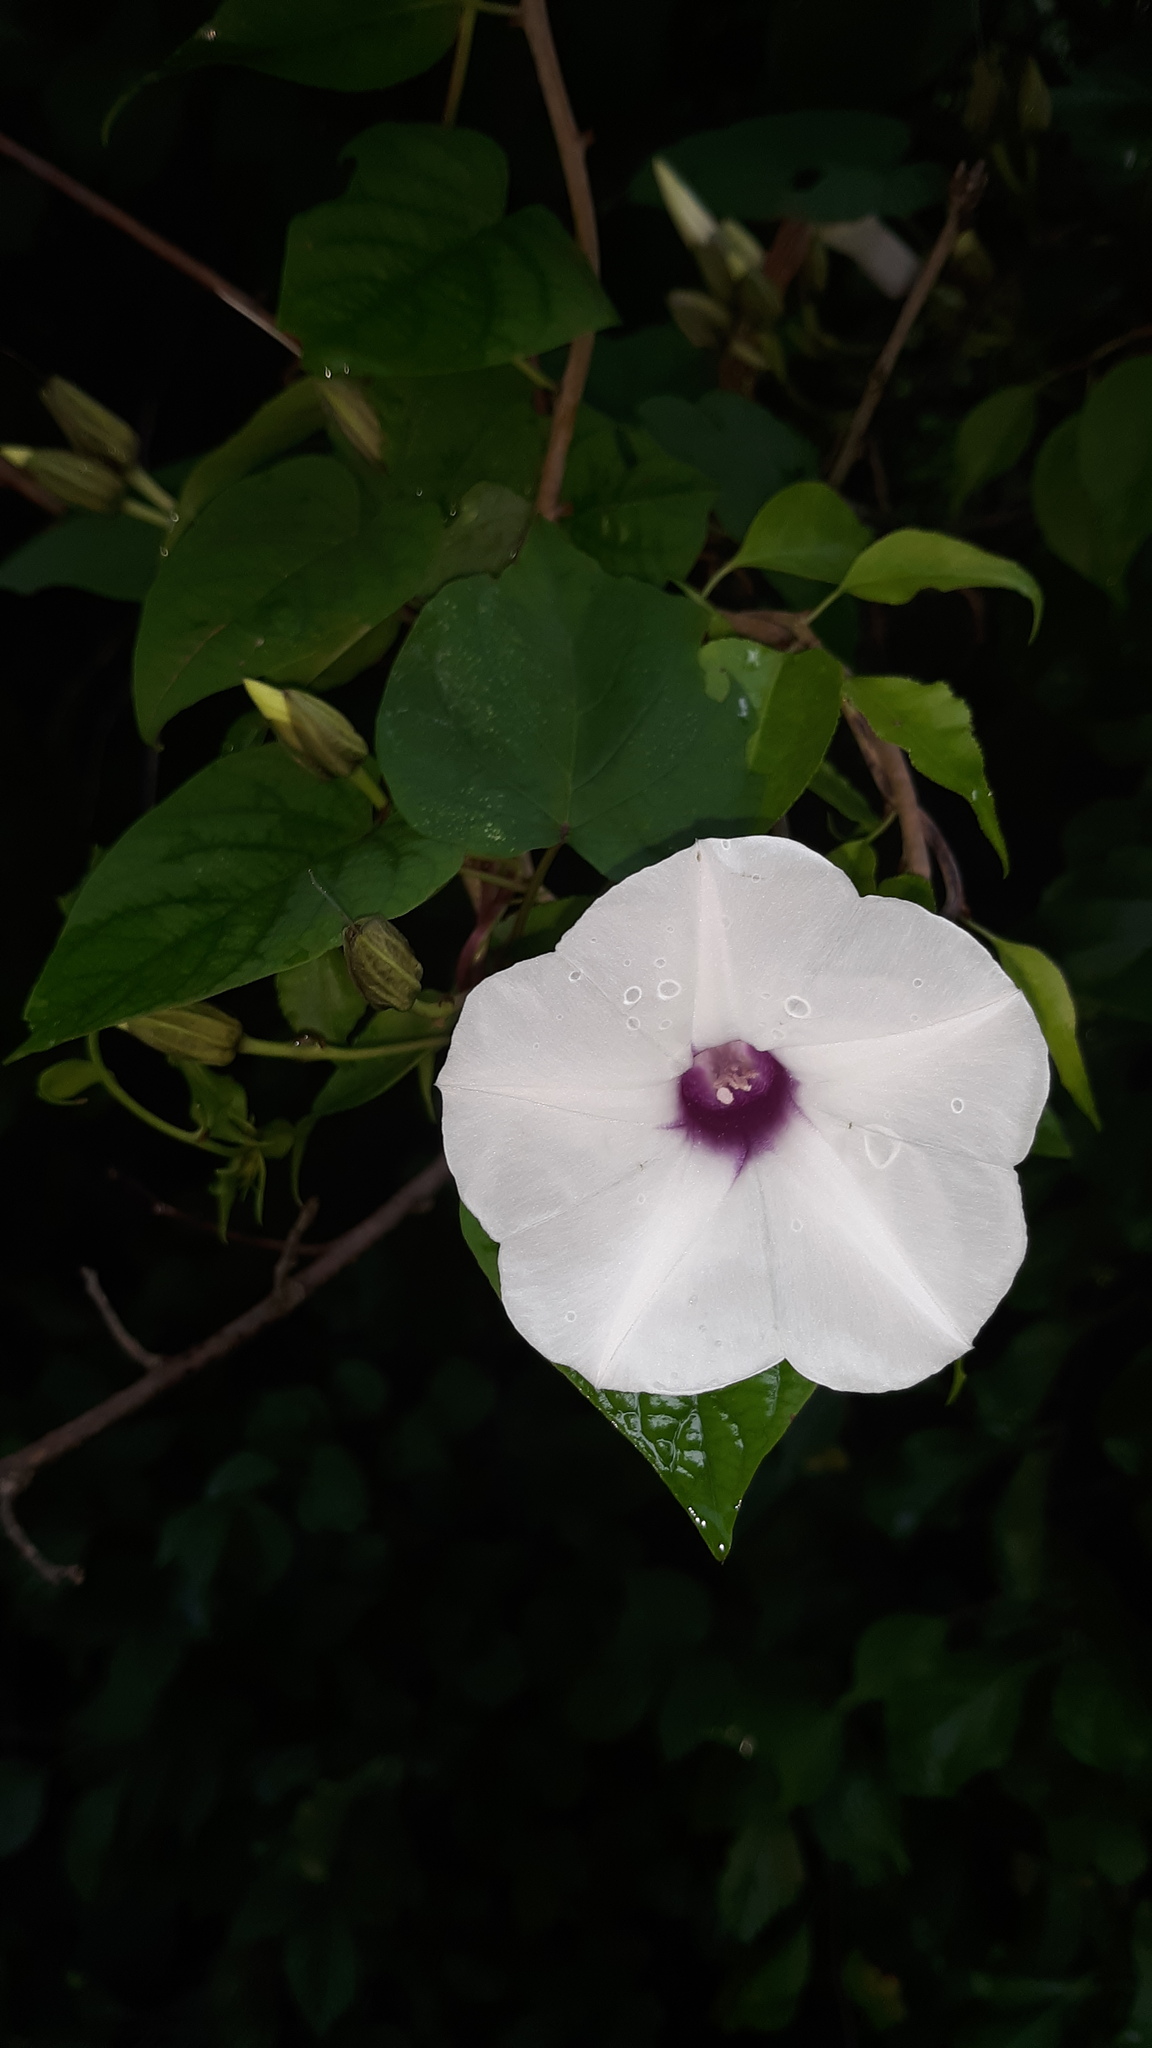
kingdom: Plantae
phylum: Tracheophyta
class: Magnoliopsida
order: Solanales
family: Convolvulaceae
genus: Ipomoea
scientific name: Ipomoea pandurata
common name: Man-of-the-earth
